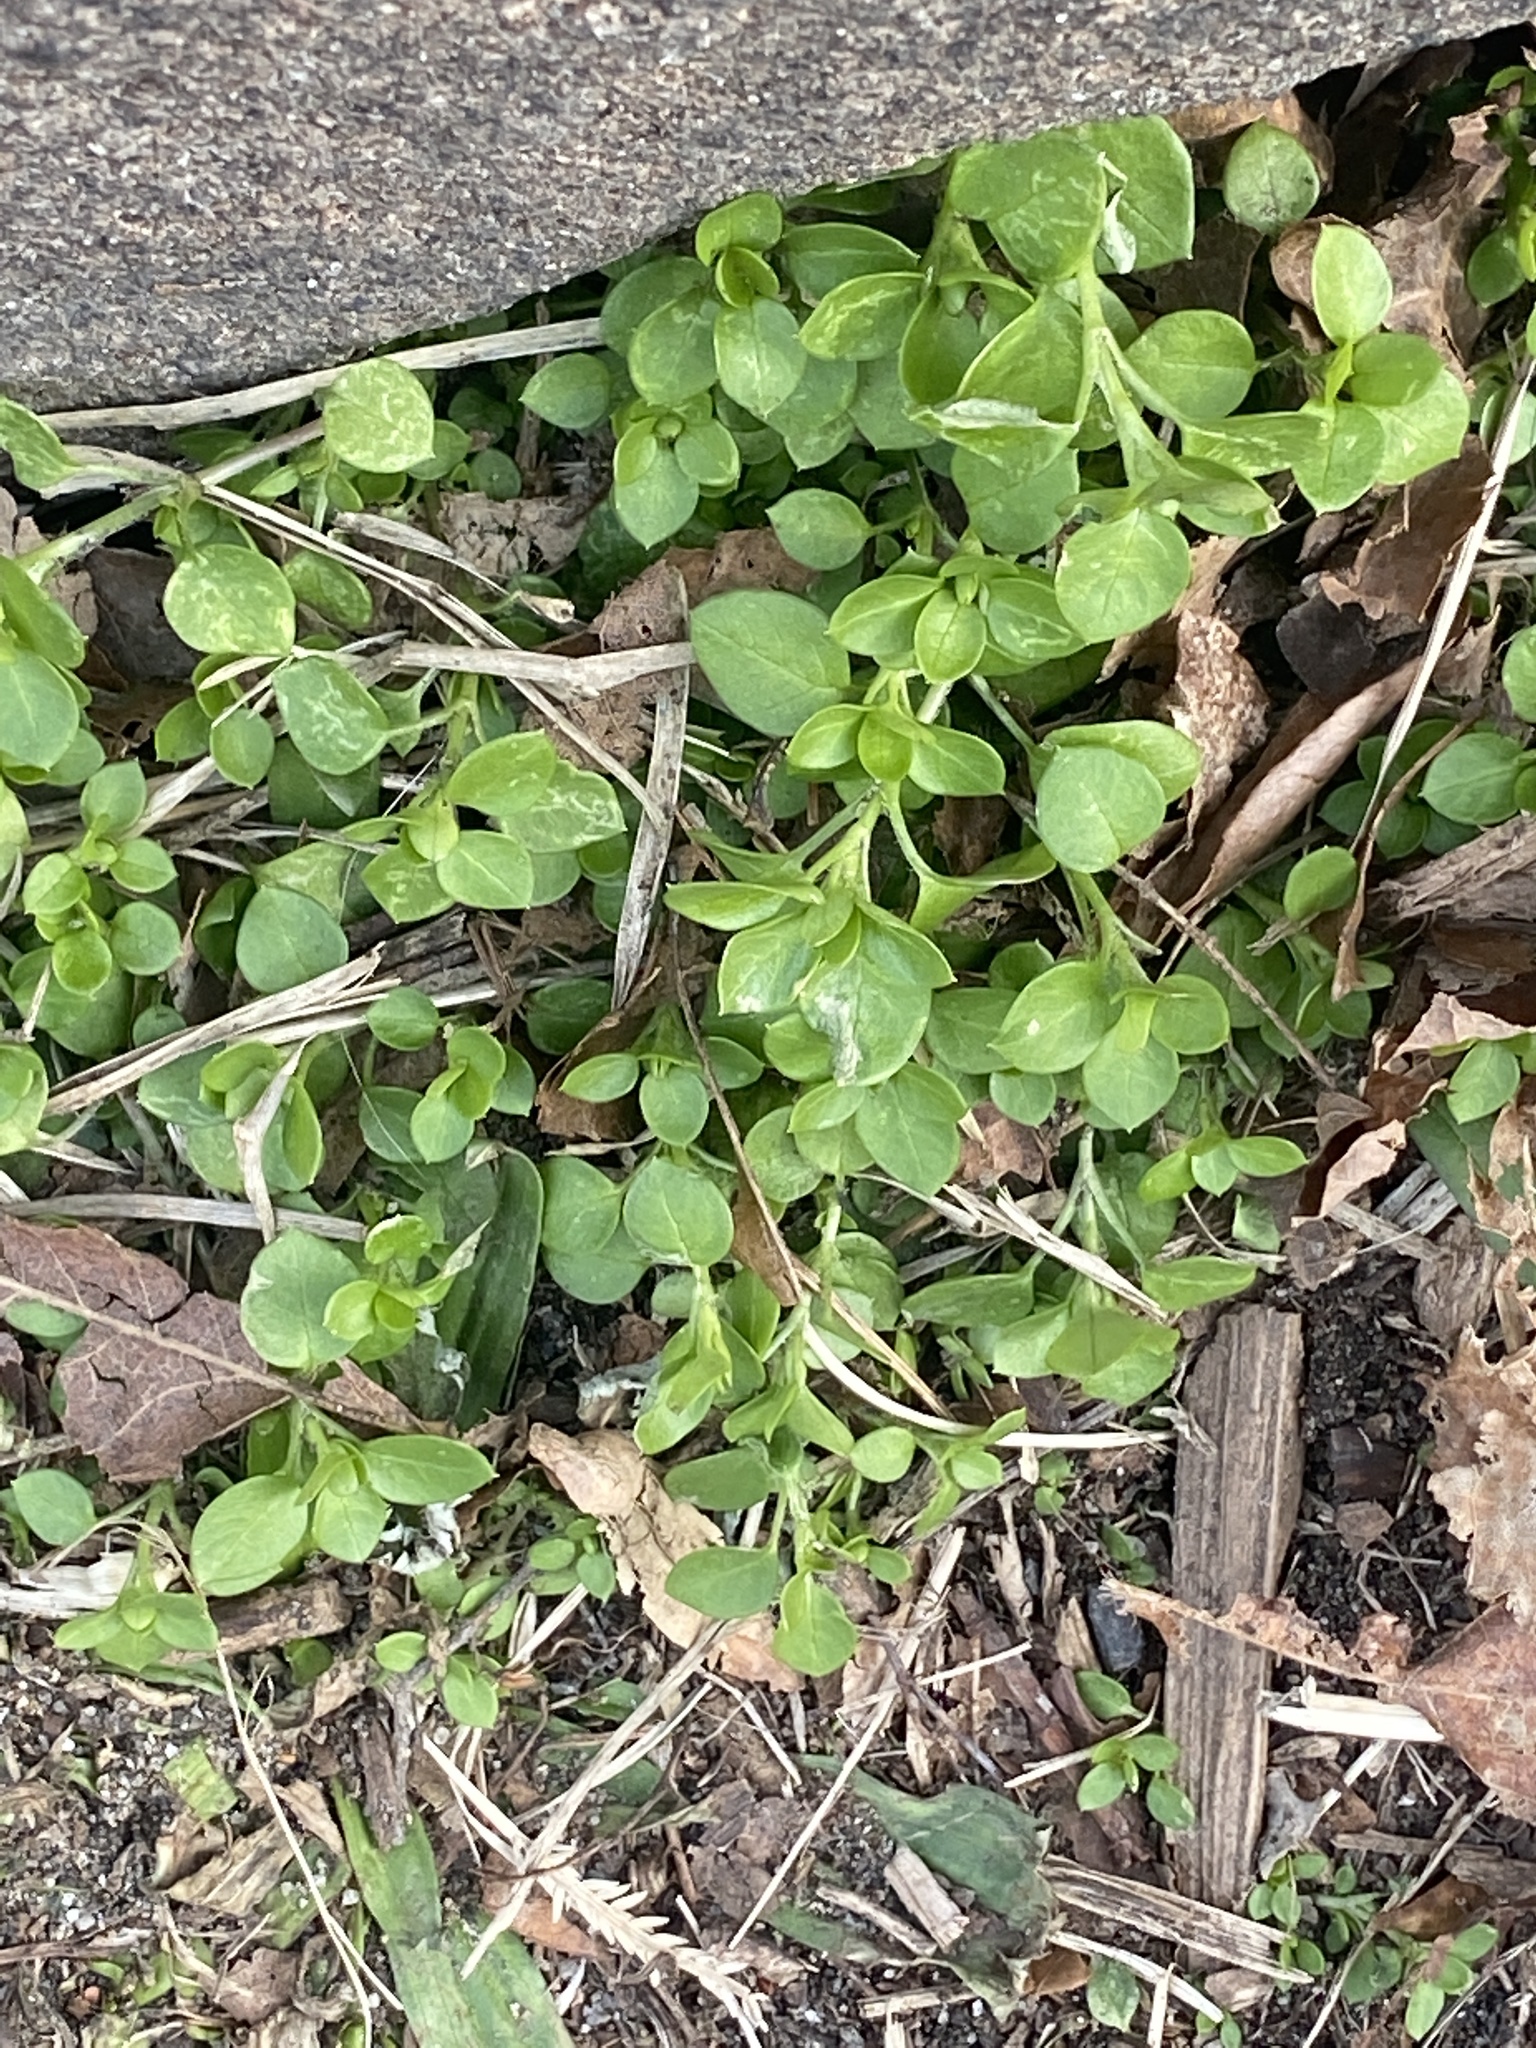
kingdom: Plantae
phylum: Tracheophyta
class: Magnoliopsida
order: Caryophyllales
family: Caryophyllaceae
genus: Stellaria
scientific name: Stellaria media
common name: Common chickweed
